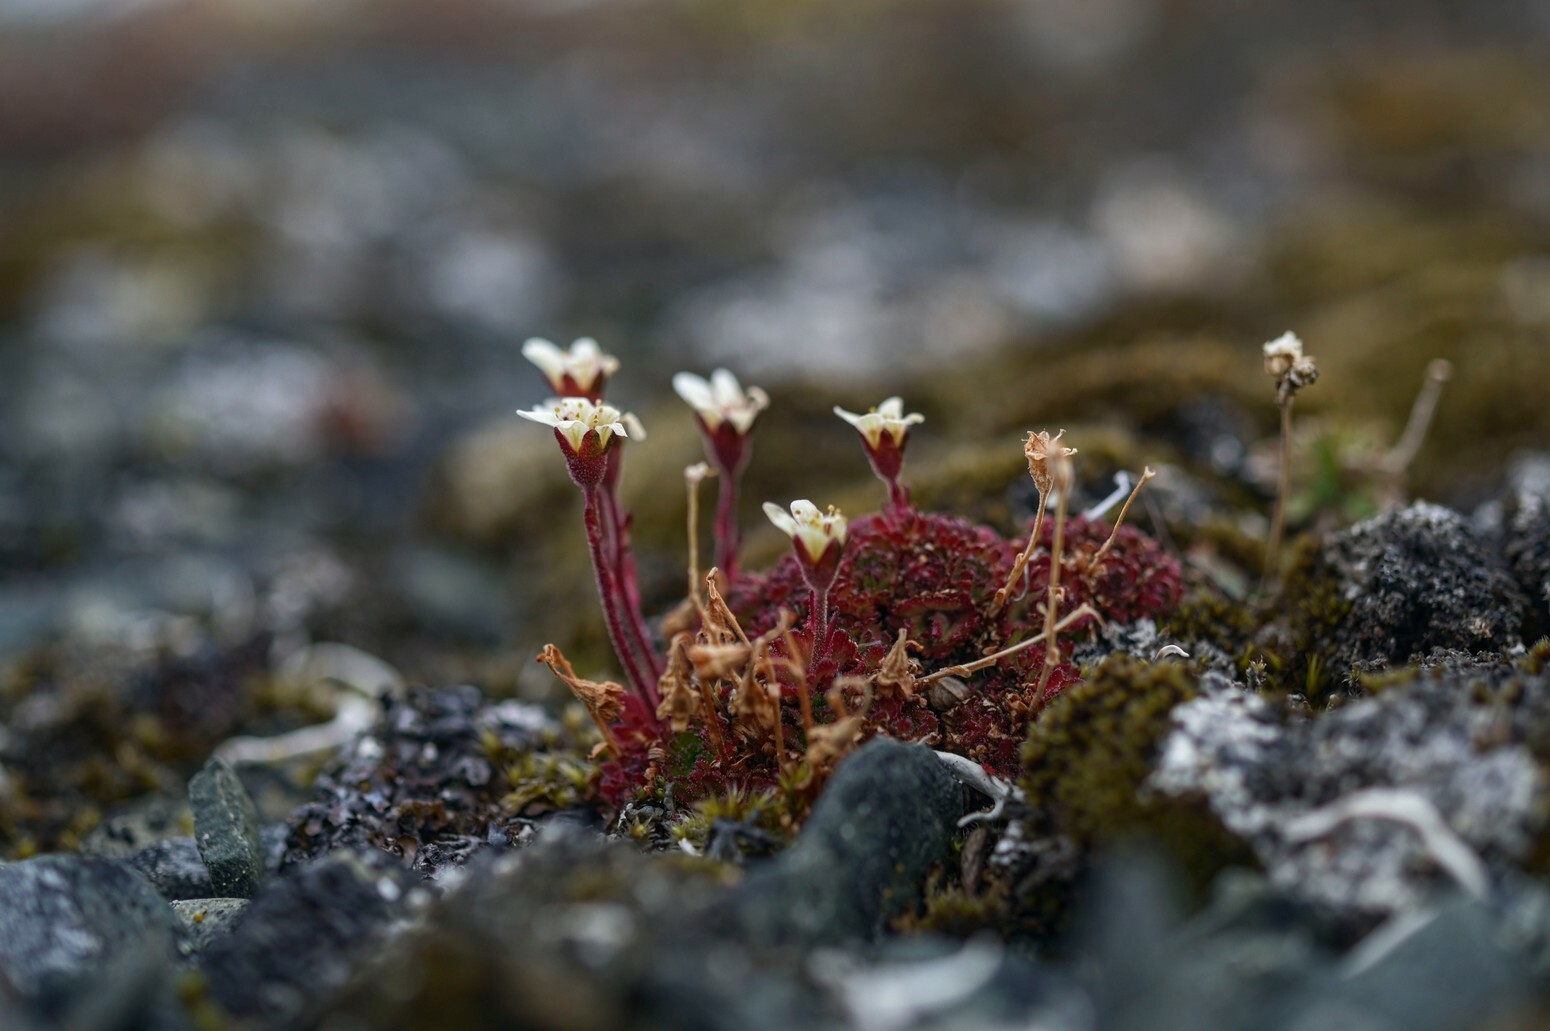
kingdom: Plantae
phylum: Tracheophyta
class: Magnoliopsida
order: Saxifragales
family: Saxifragaceae
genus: Saxifraga
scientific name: Saxifraga cespitosa
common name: Tufted saxifrage
